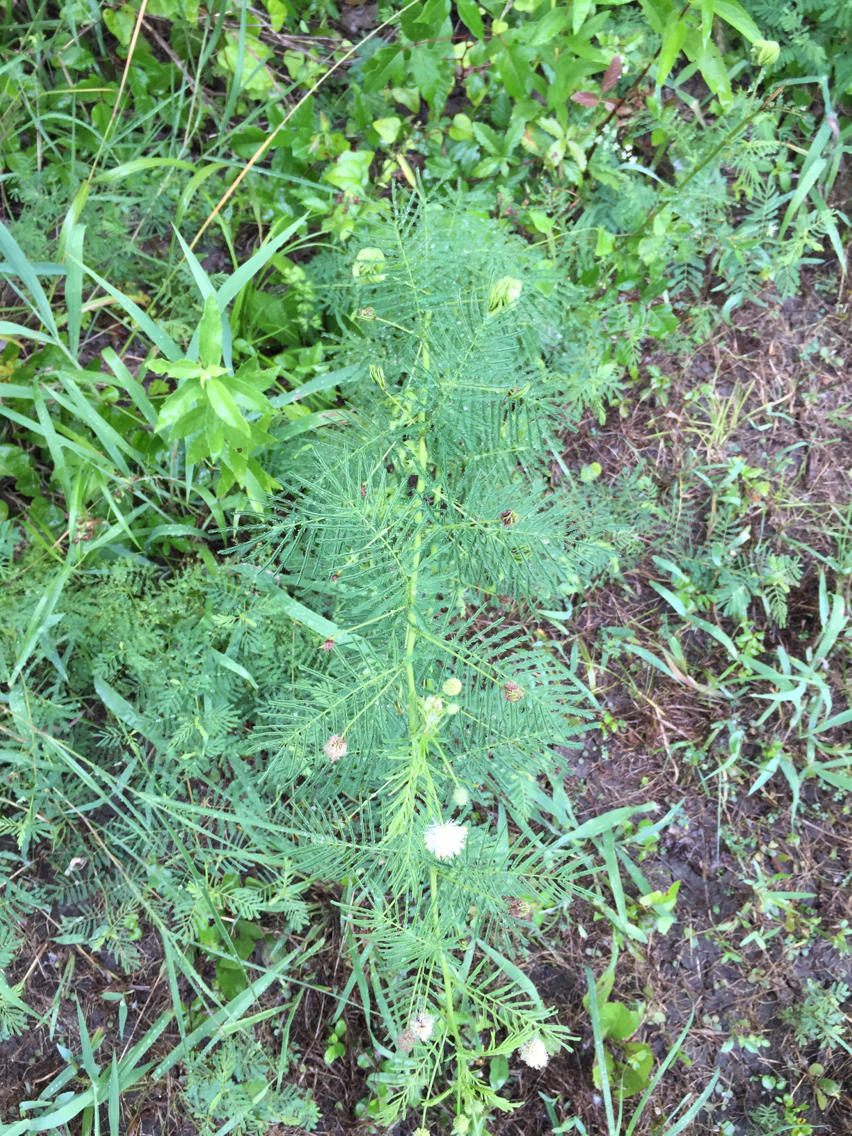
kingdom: Plantae
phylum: Tracheophyta
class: Magnoliopsida
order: Fabales
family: Fabaceae
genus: Desmanthus
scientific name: Desmanthus illinoensis
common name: Illinois bundle-flower
